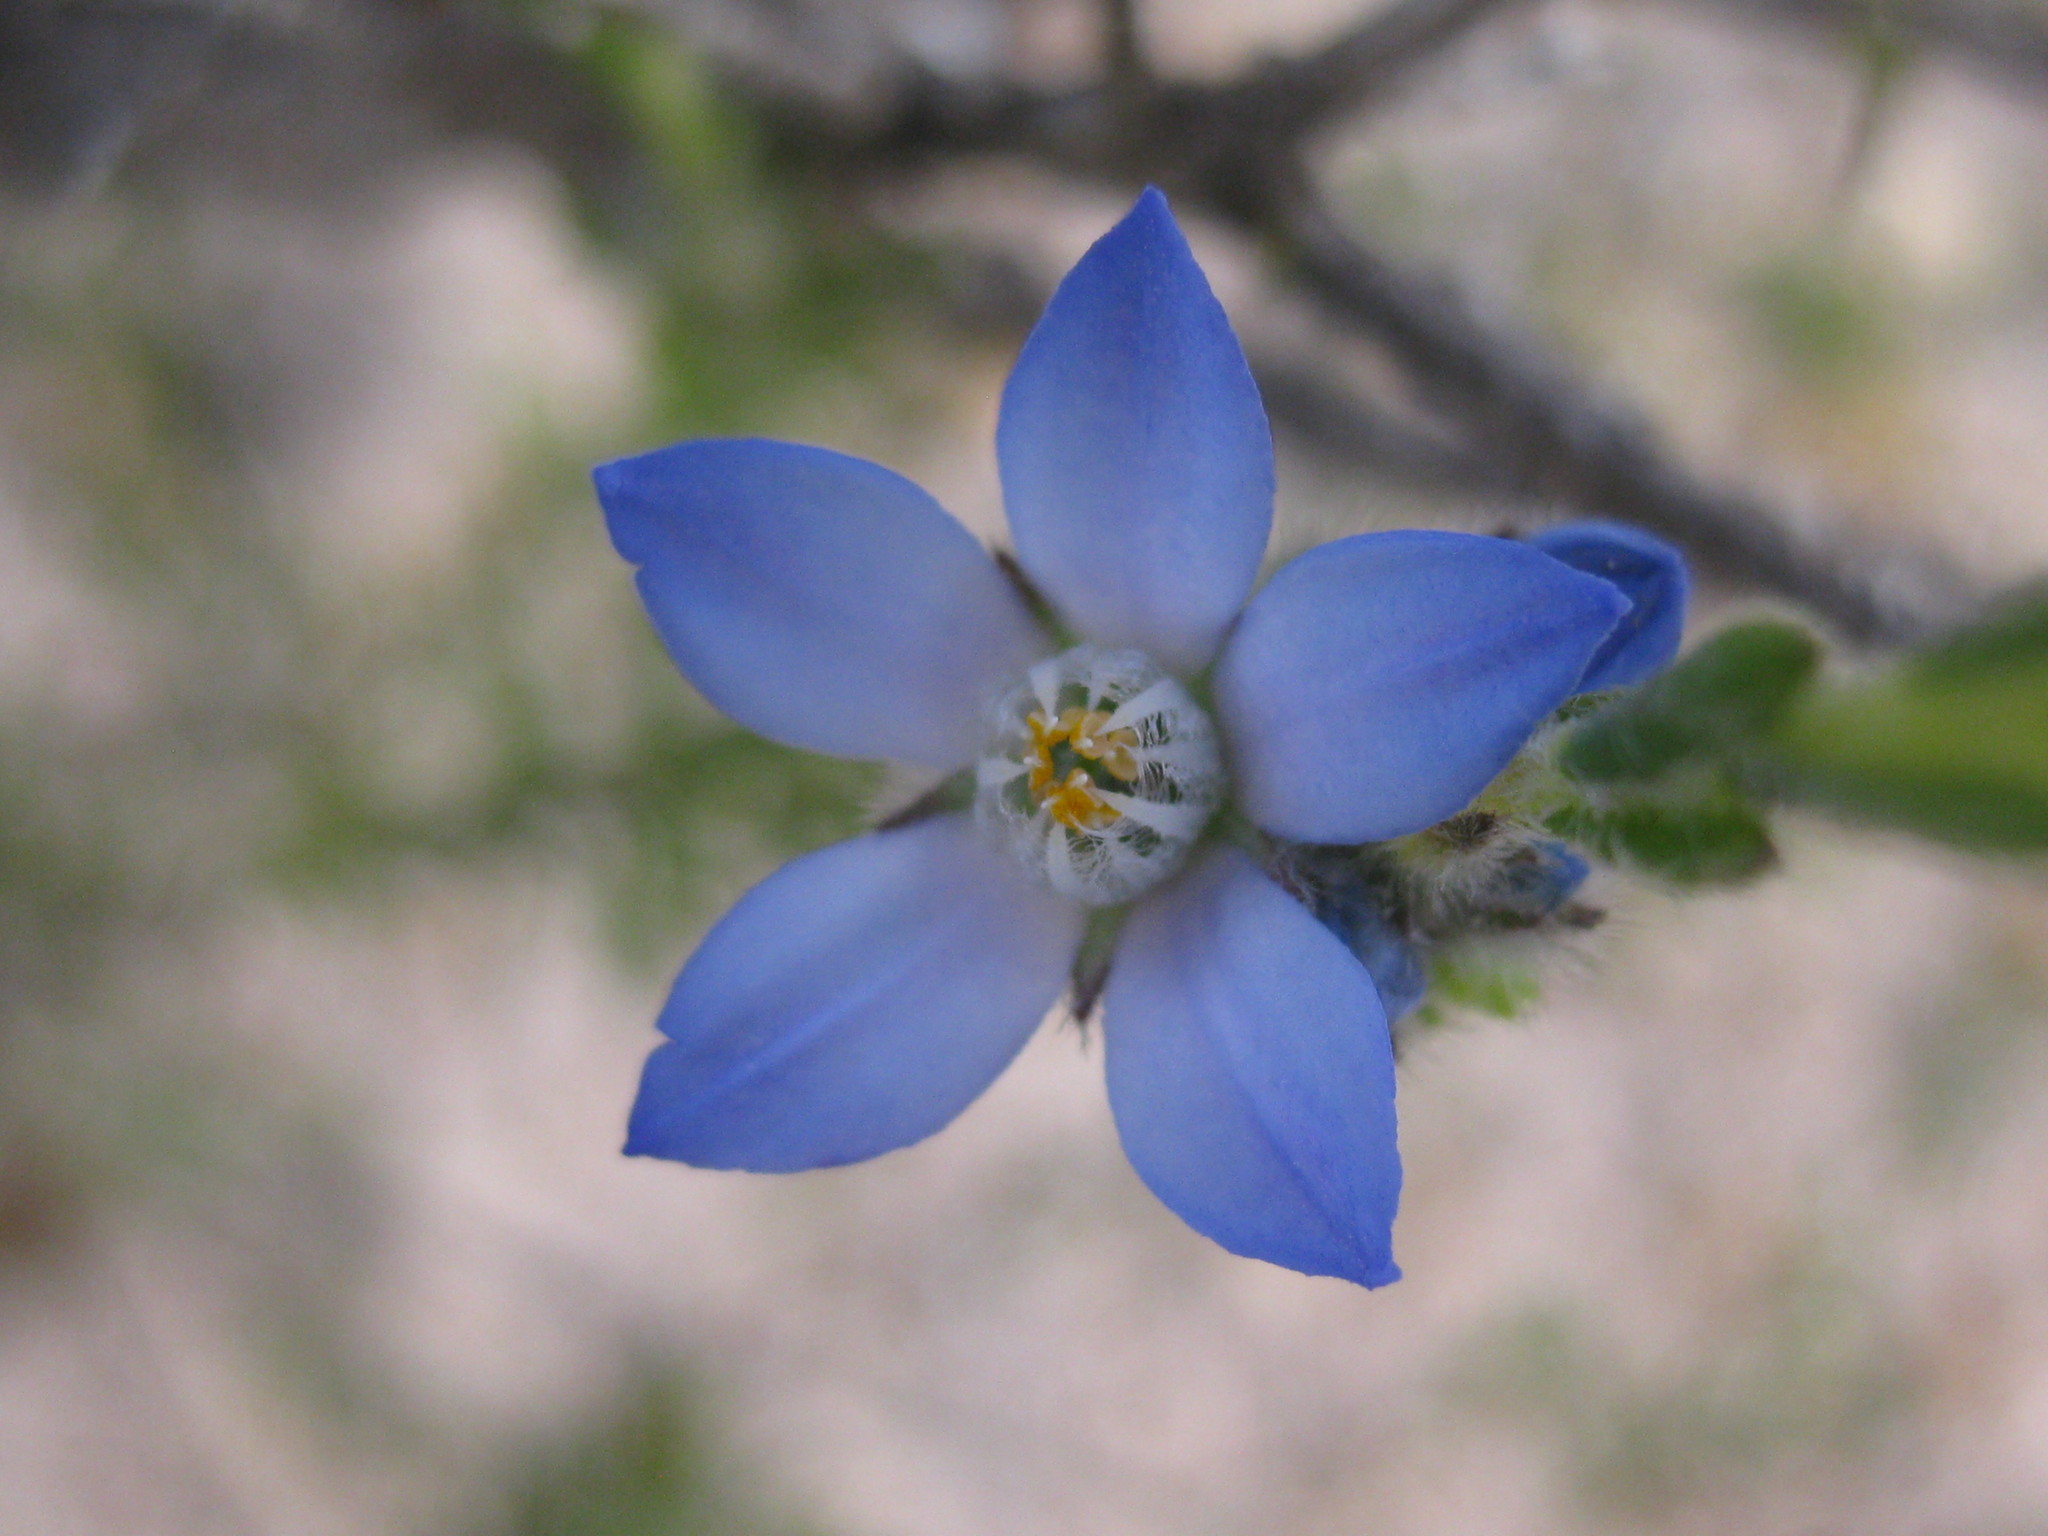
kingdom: Plantae
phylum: Tracheophyta
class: Magnoliopsida
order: Sapindales
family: Rutaceae
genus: Philotheca
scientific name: Philotheca nodiflora
